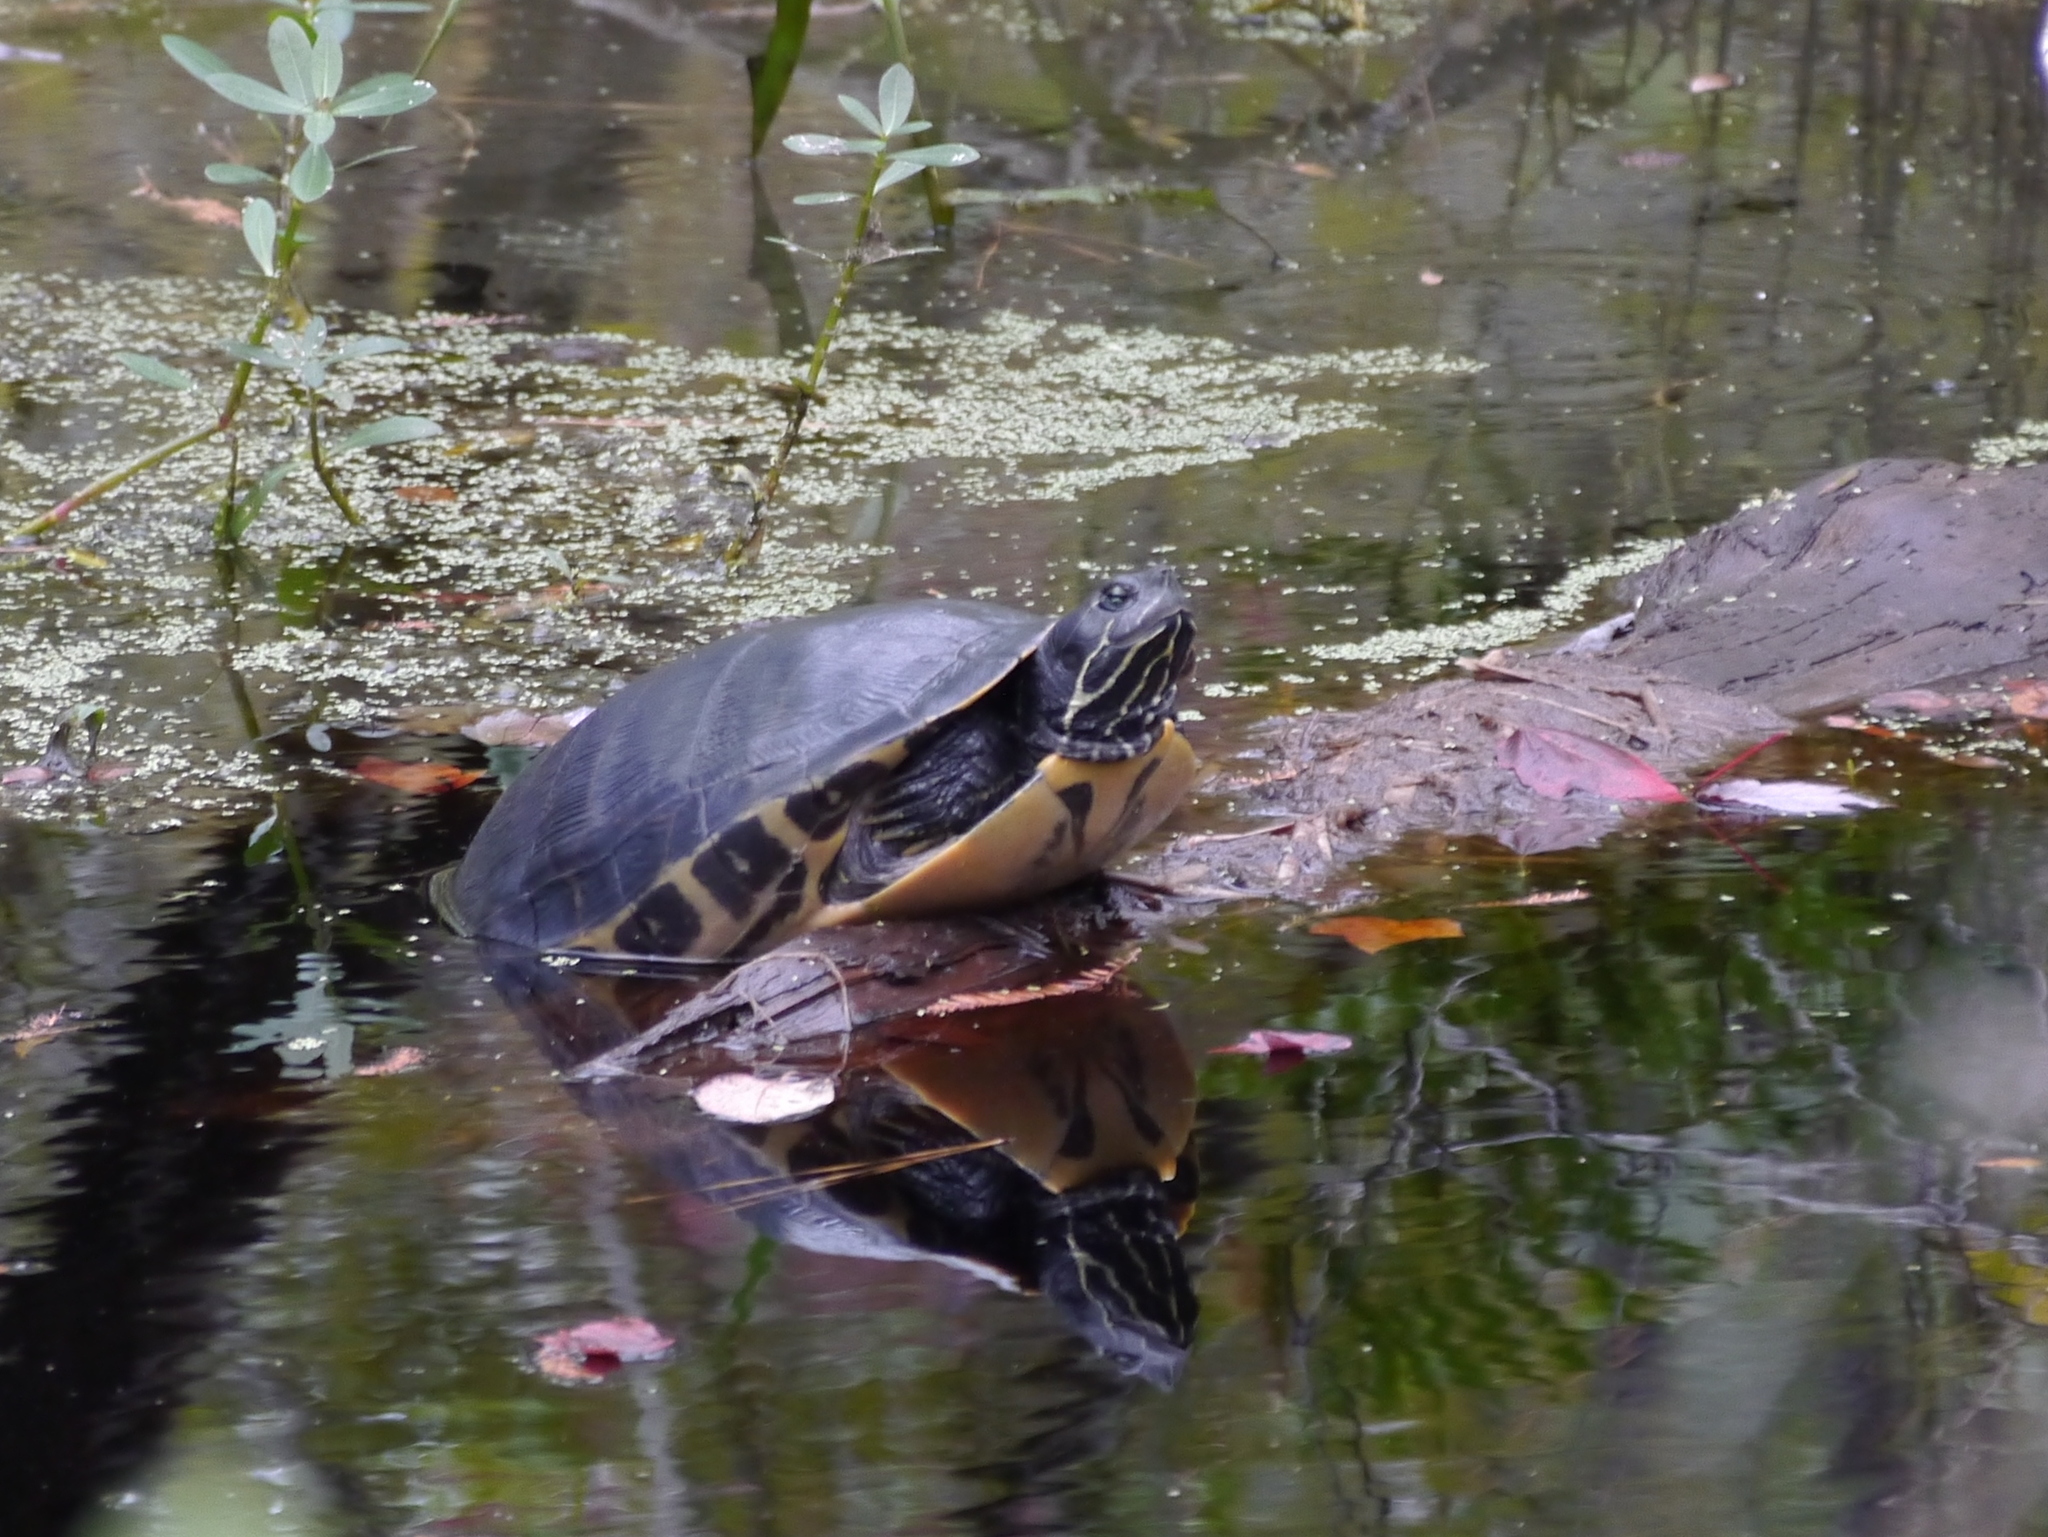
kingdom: Animalia
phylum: Chordata
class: Testudines
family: Emydidae
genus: Pseudemys
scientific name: Pseudemys concinna
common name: Eastern river cooter
